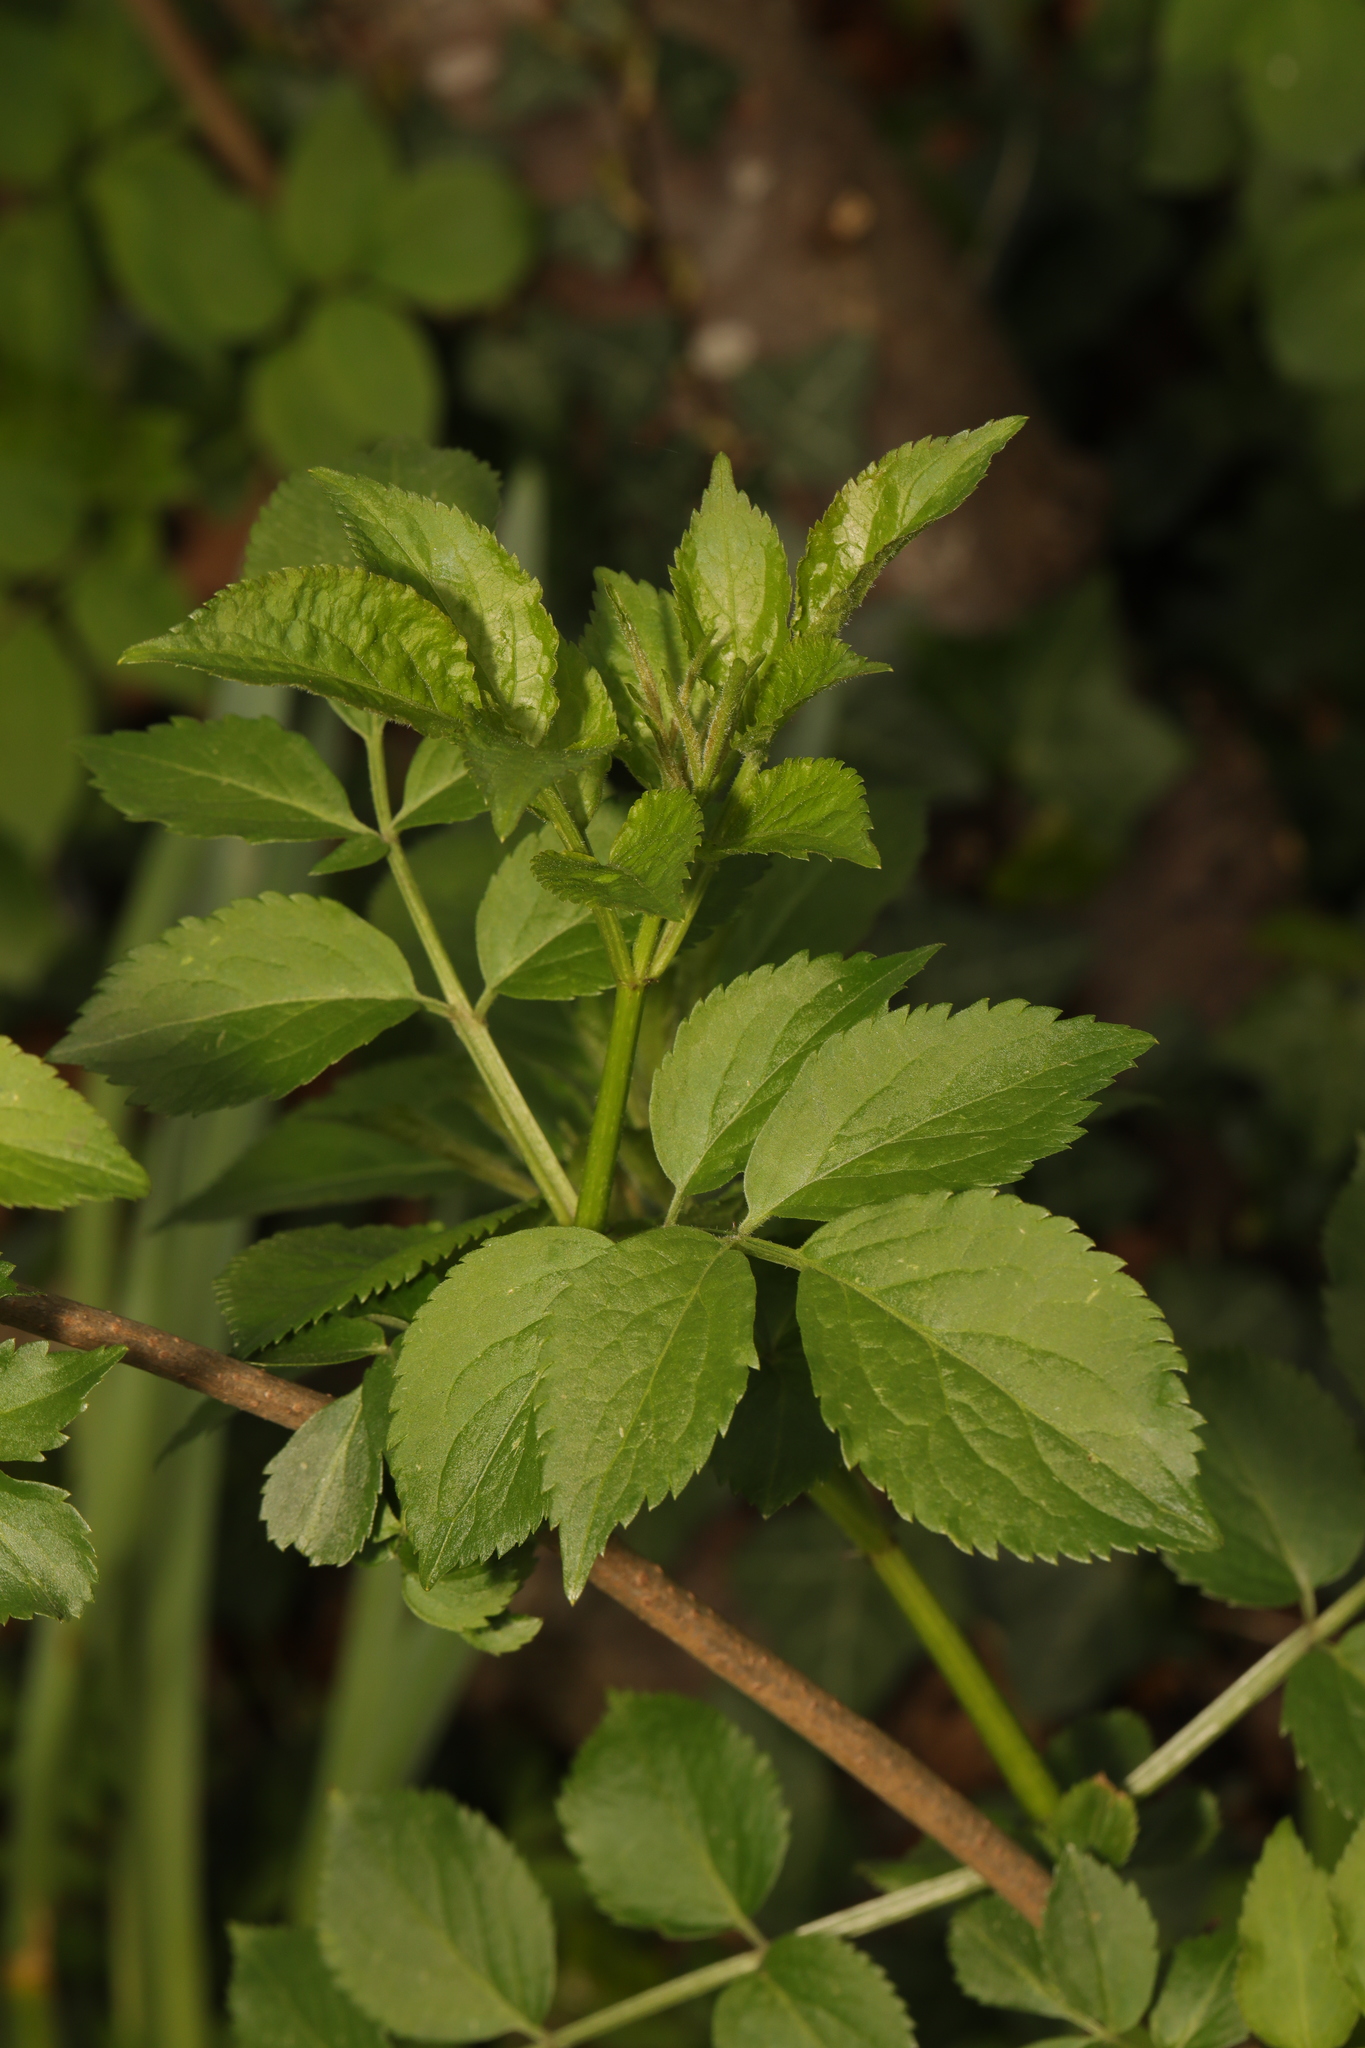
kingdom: Plantae
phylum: Tracheophyta
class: Magnoliopsida
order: Dipsacales
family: Viburnaceae
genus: Sambucus
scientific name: Sambucus nigra
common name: Elder
